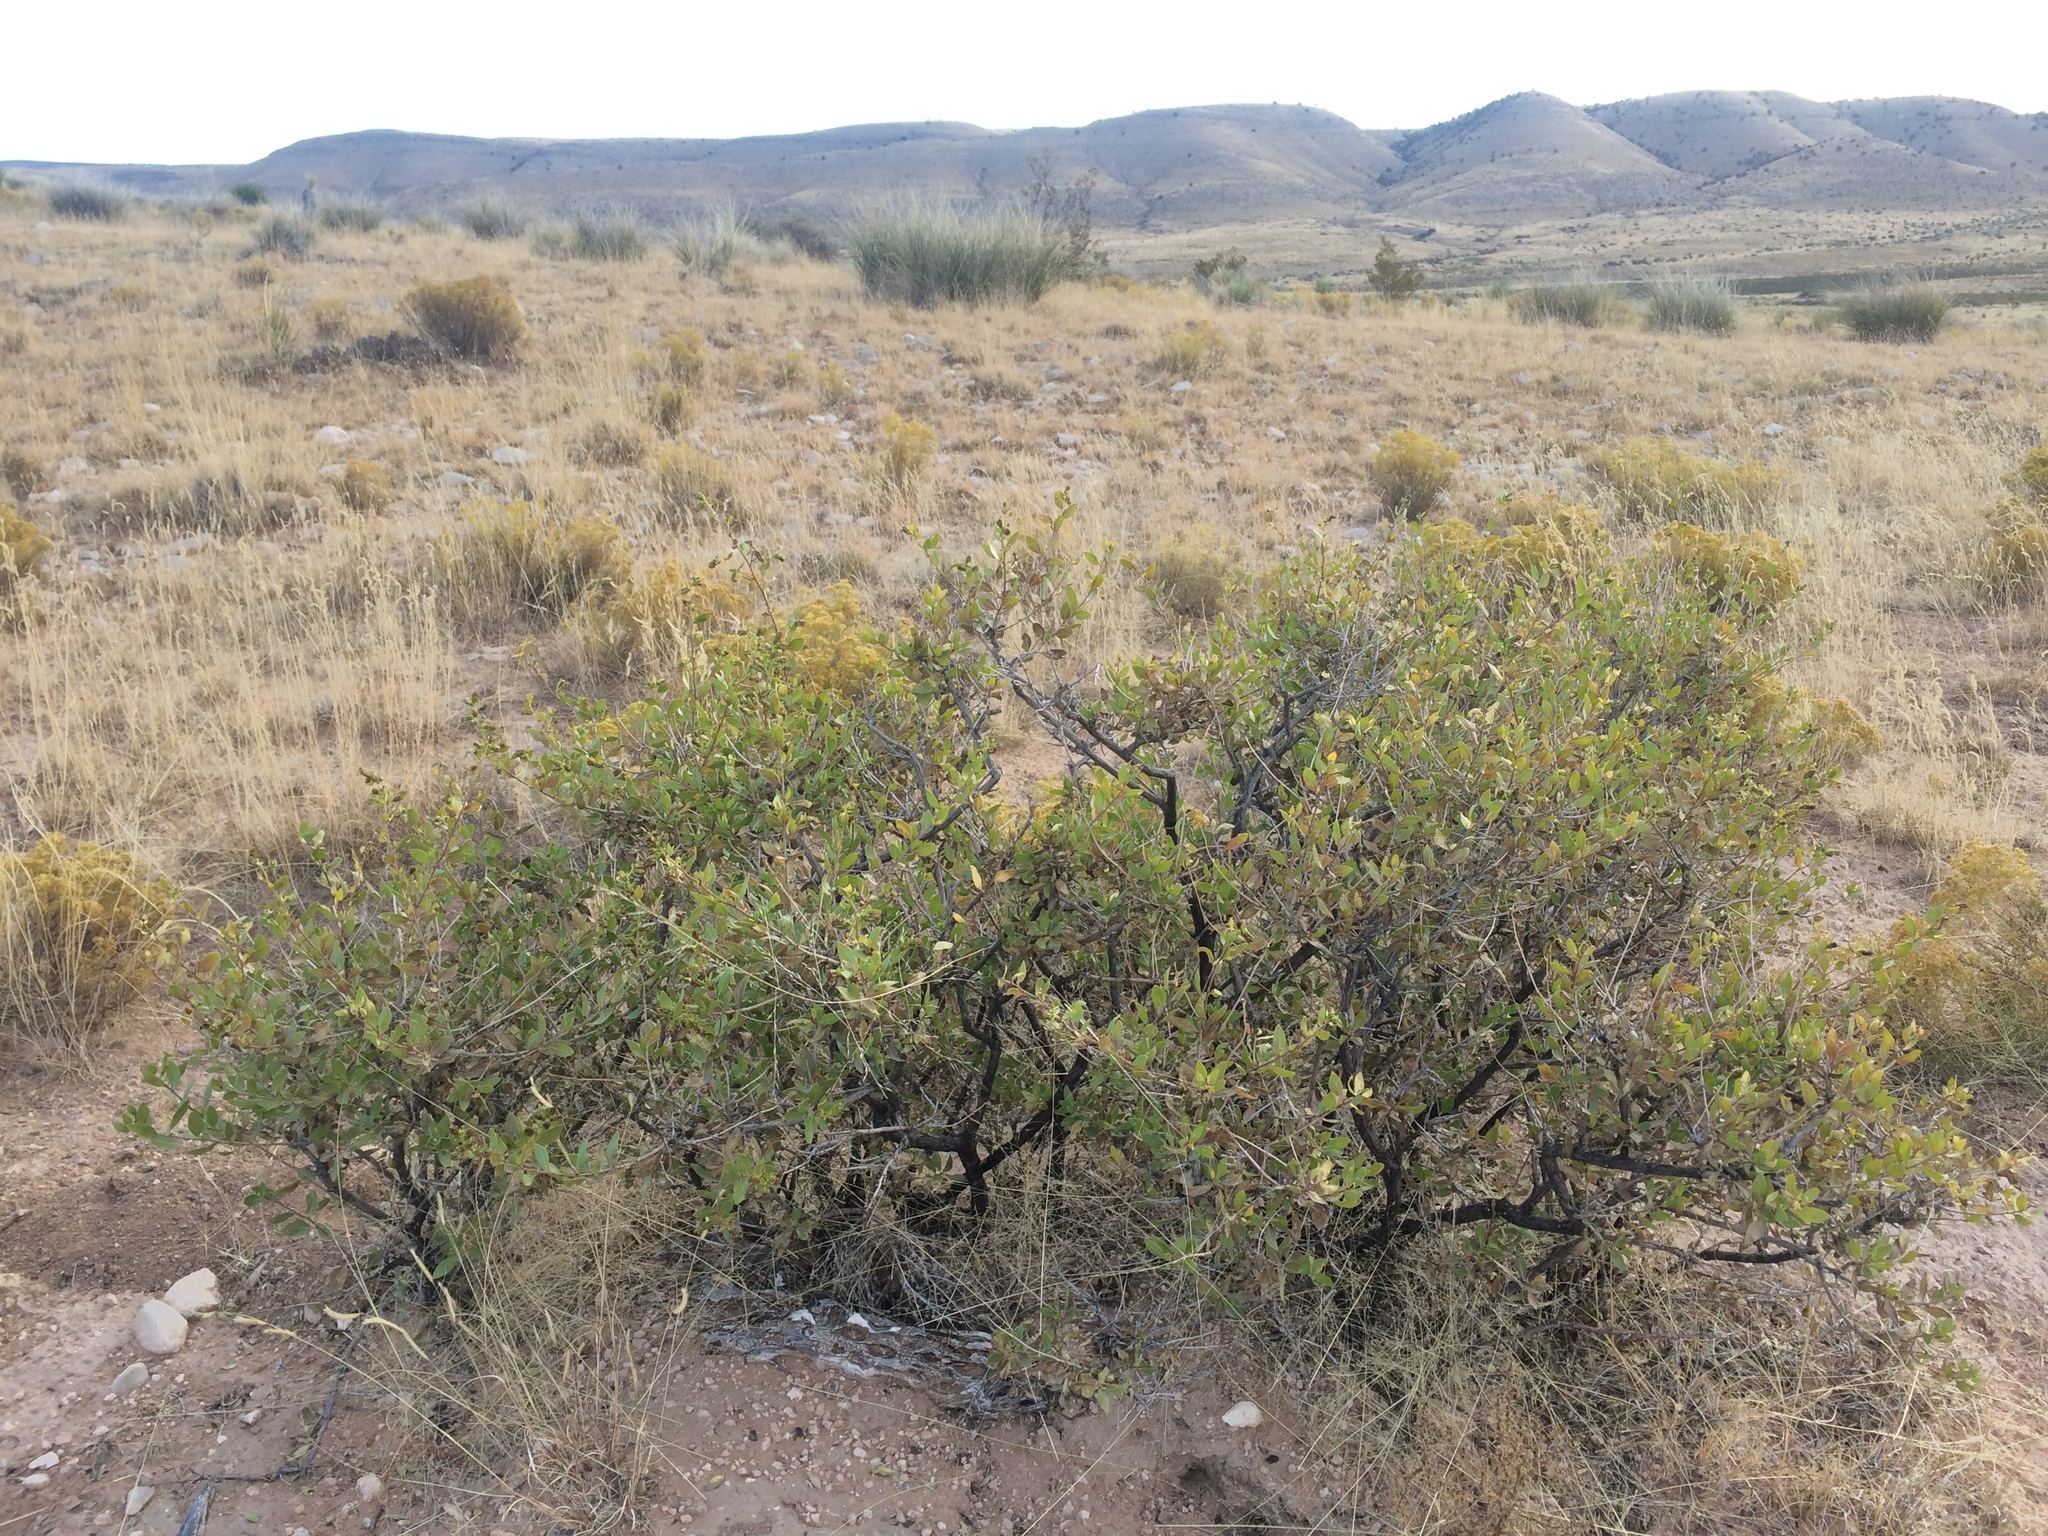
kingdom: Plantae
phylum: Tracheophyta
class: Magnoliopsida
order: Asterales
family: Asteraceae
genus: Flourensia
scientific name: Flourensia cernua
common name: Varnishbush
